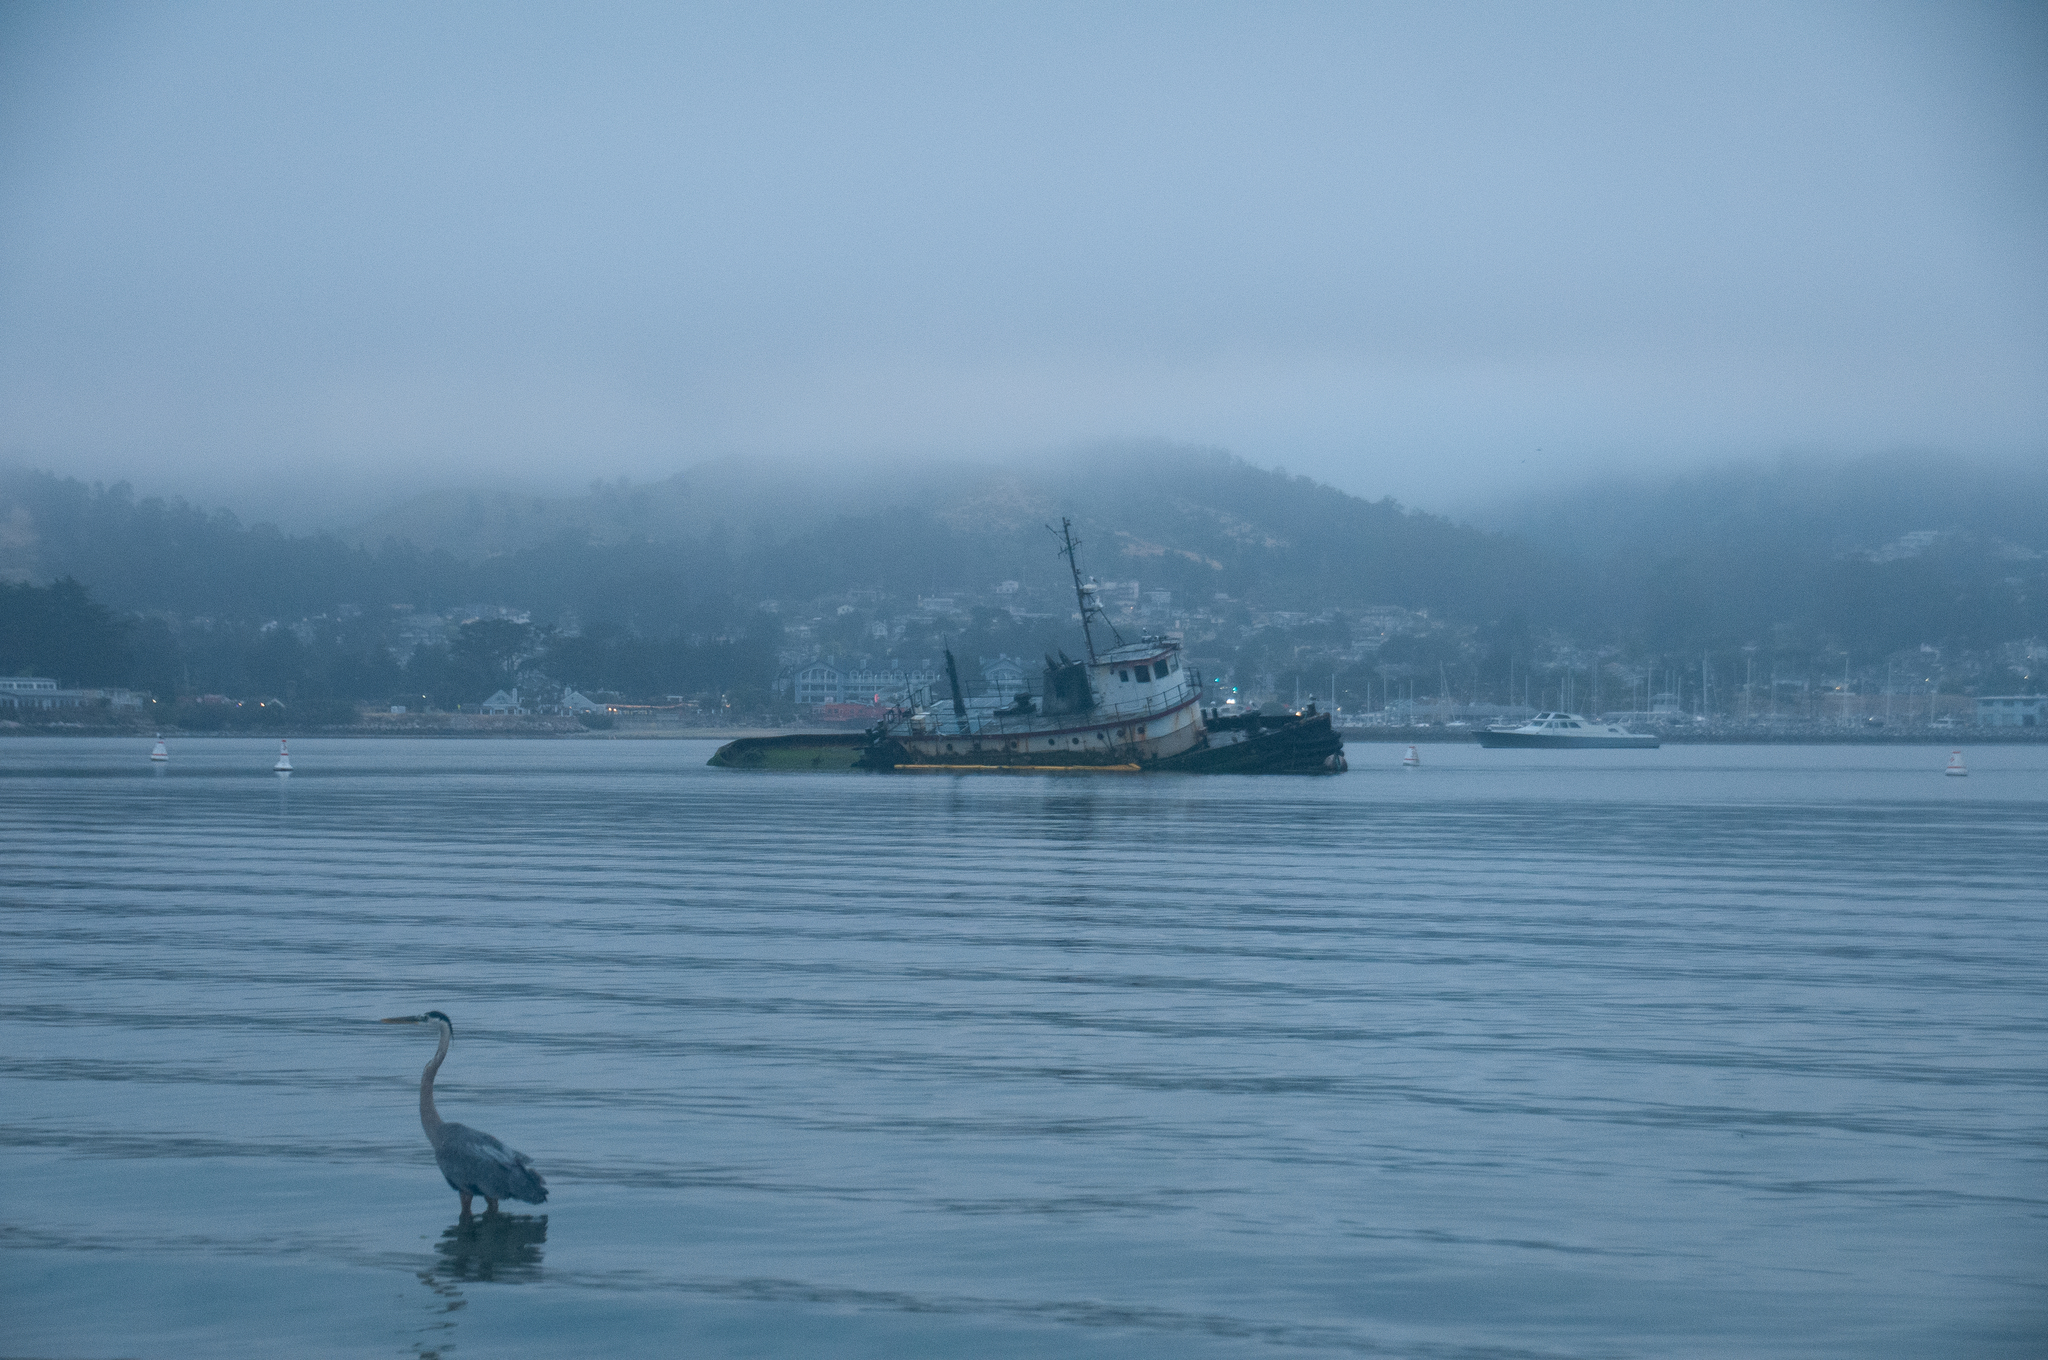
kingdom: Animalia
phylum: Chordata
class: Aves
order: Pelecaniformes
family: Ardeidae
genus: Ardea
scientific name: Ardea herodias
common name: Great blue heron
